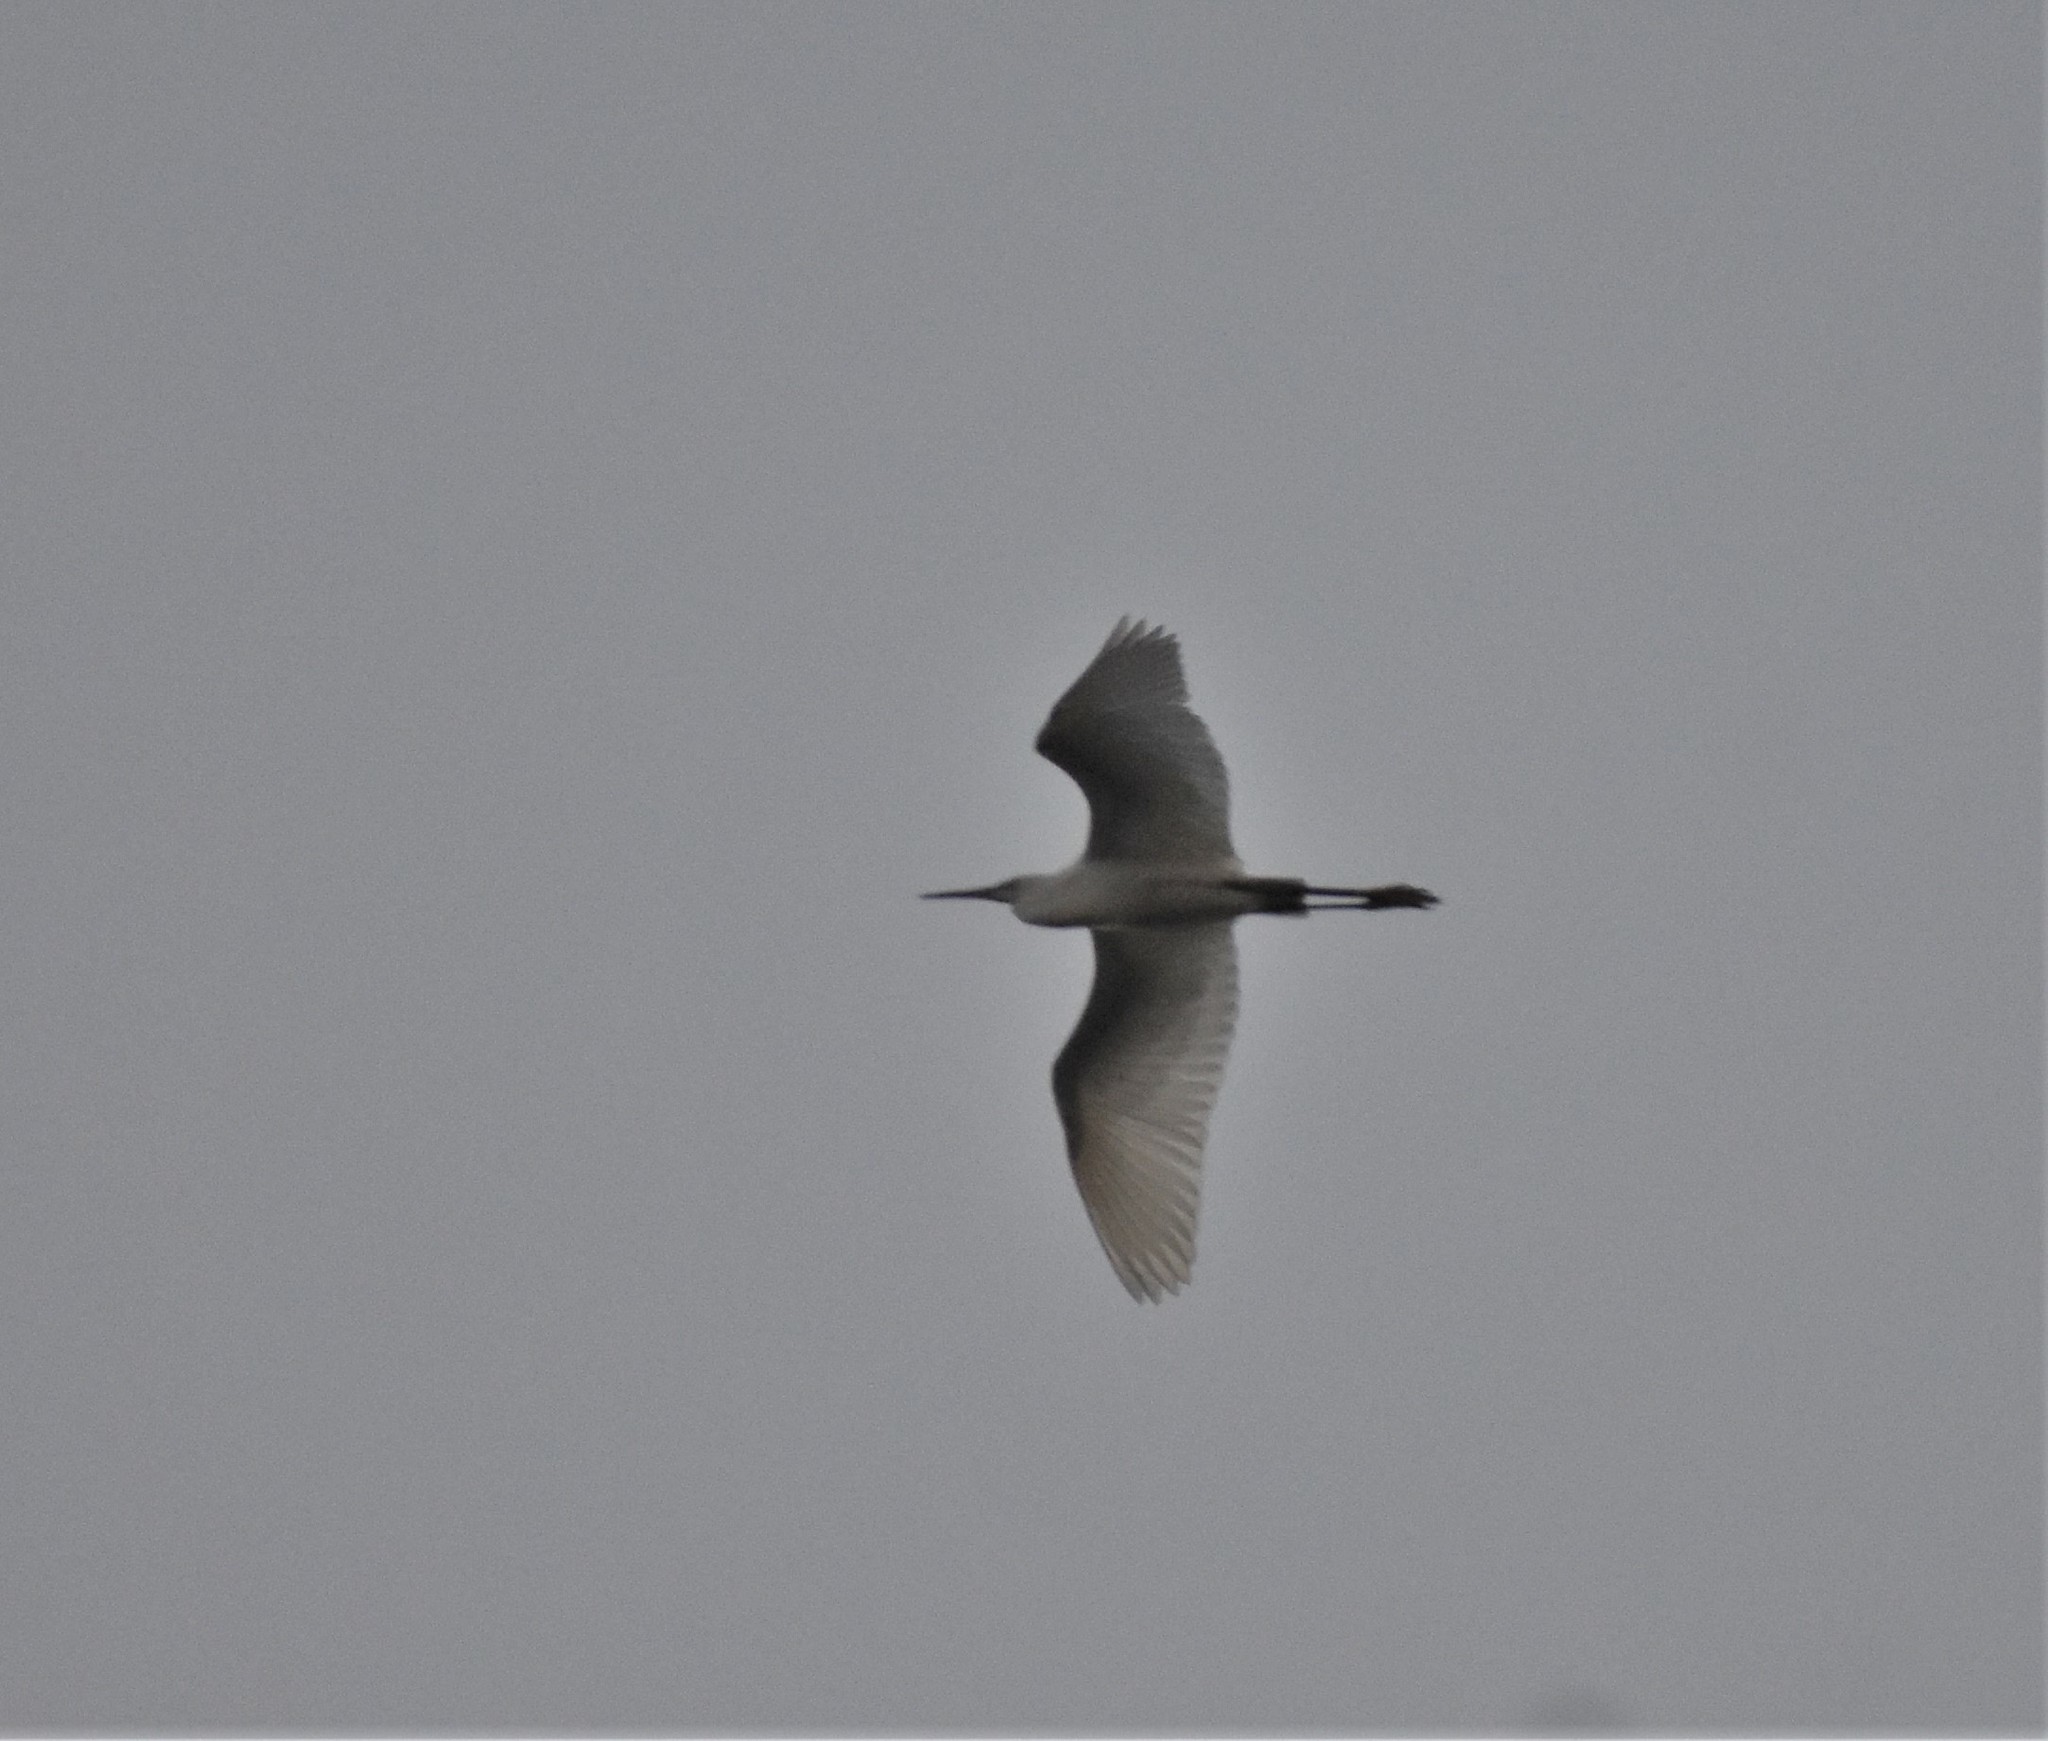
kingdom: Animalia
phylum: Chordata
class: Aves
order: Pelecaniformes
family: Ardeidae
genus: Egretta
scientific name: Egretta garzetta
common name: Little egret
